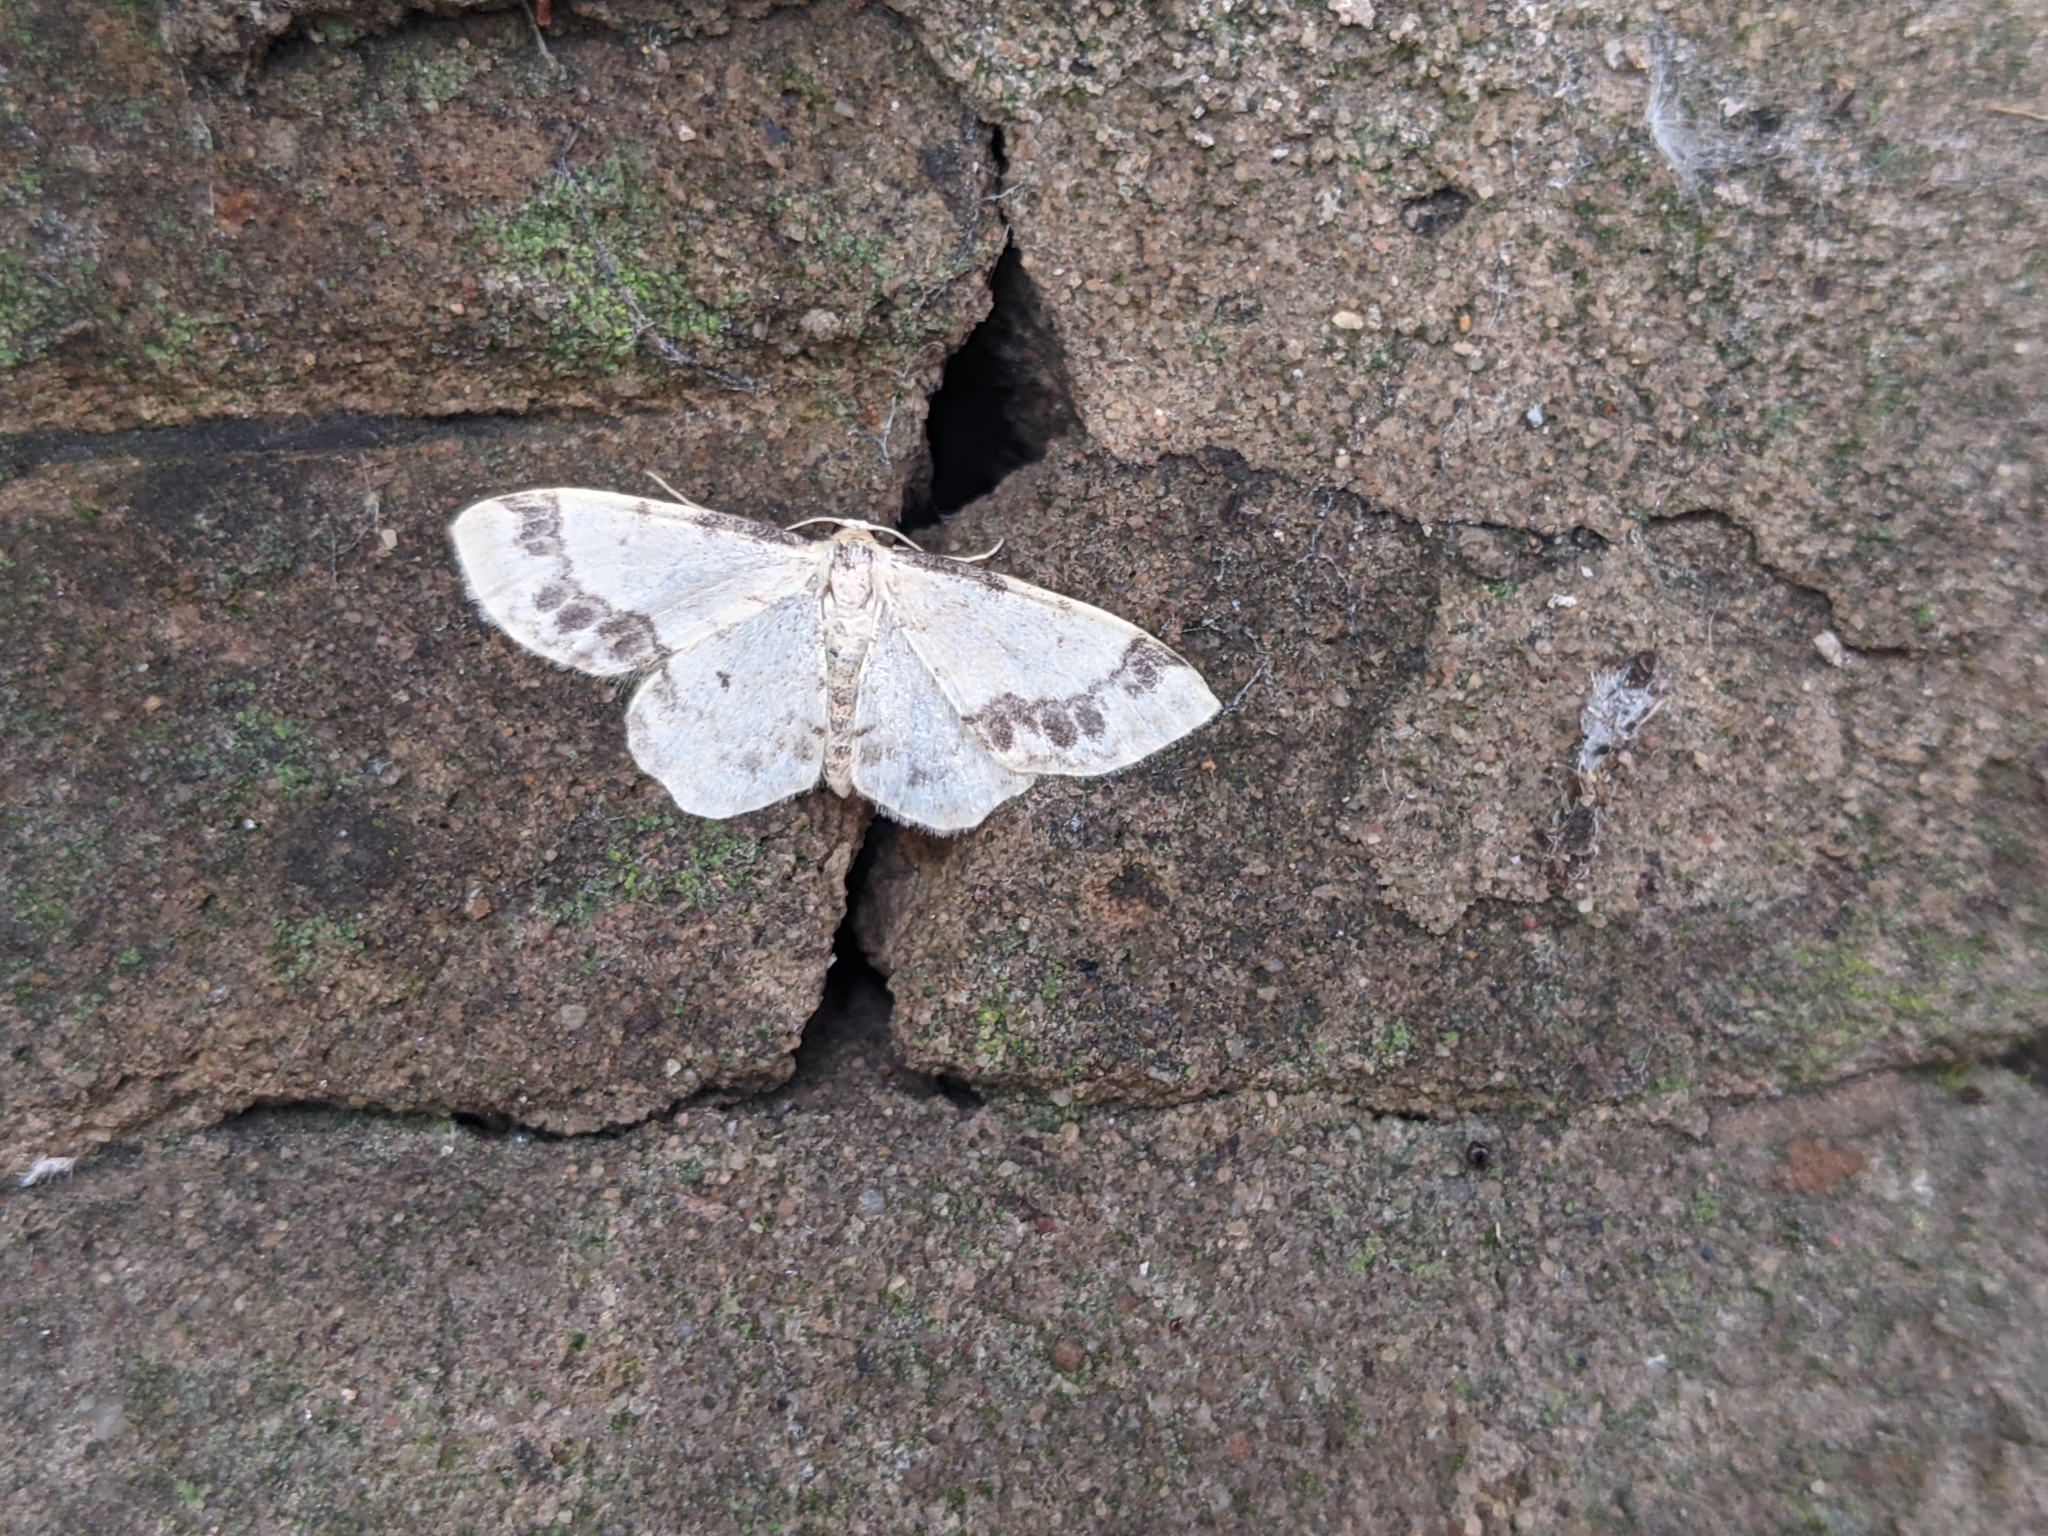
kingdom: Animalia
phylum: Arthropoda
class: Insecta
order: Lepidoptera
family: Geometridae
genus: Idaea
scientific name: Idaea trigeminata
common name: Treble brown spot
